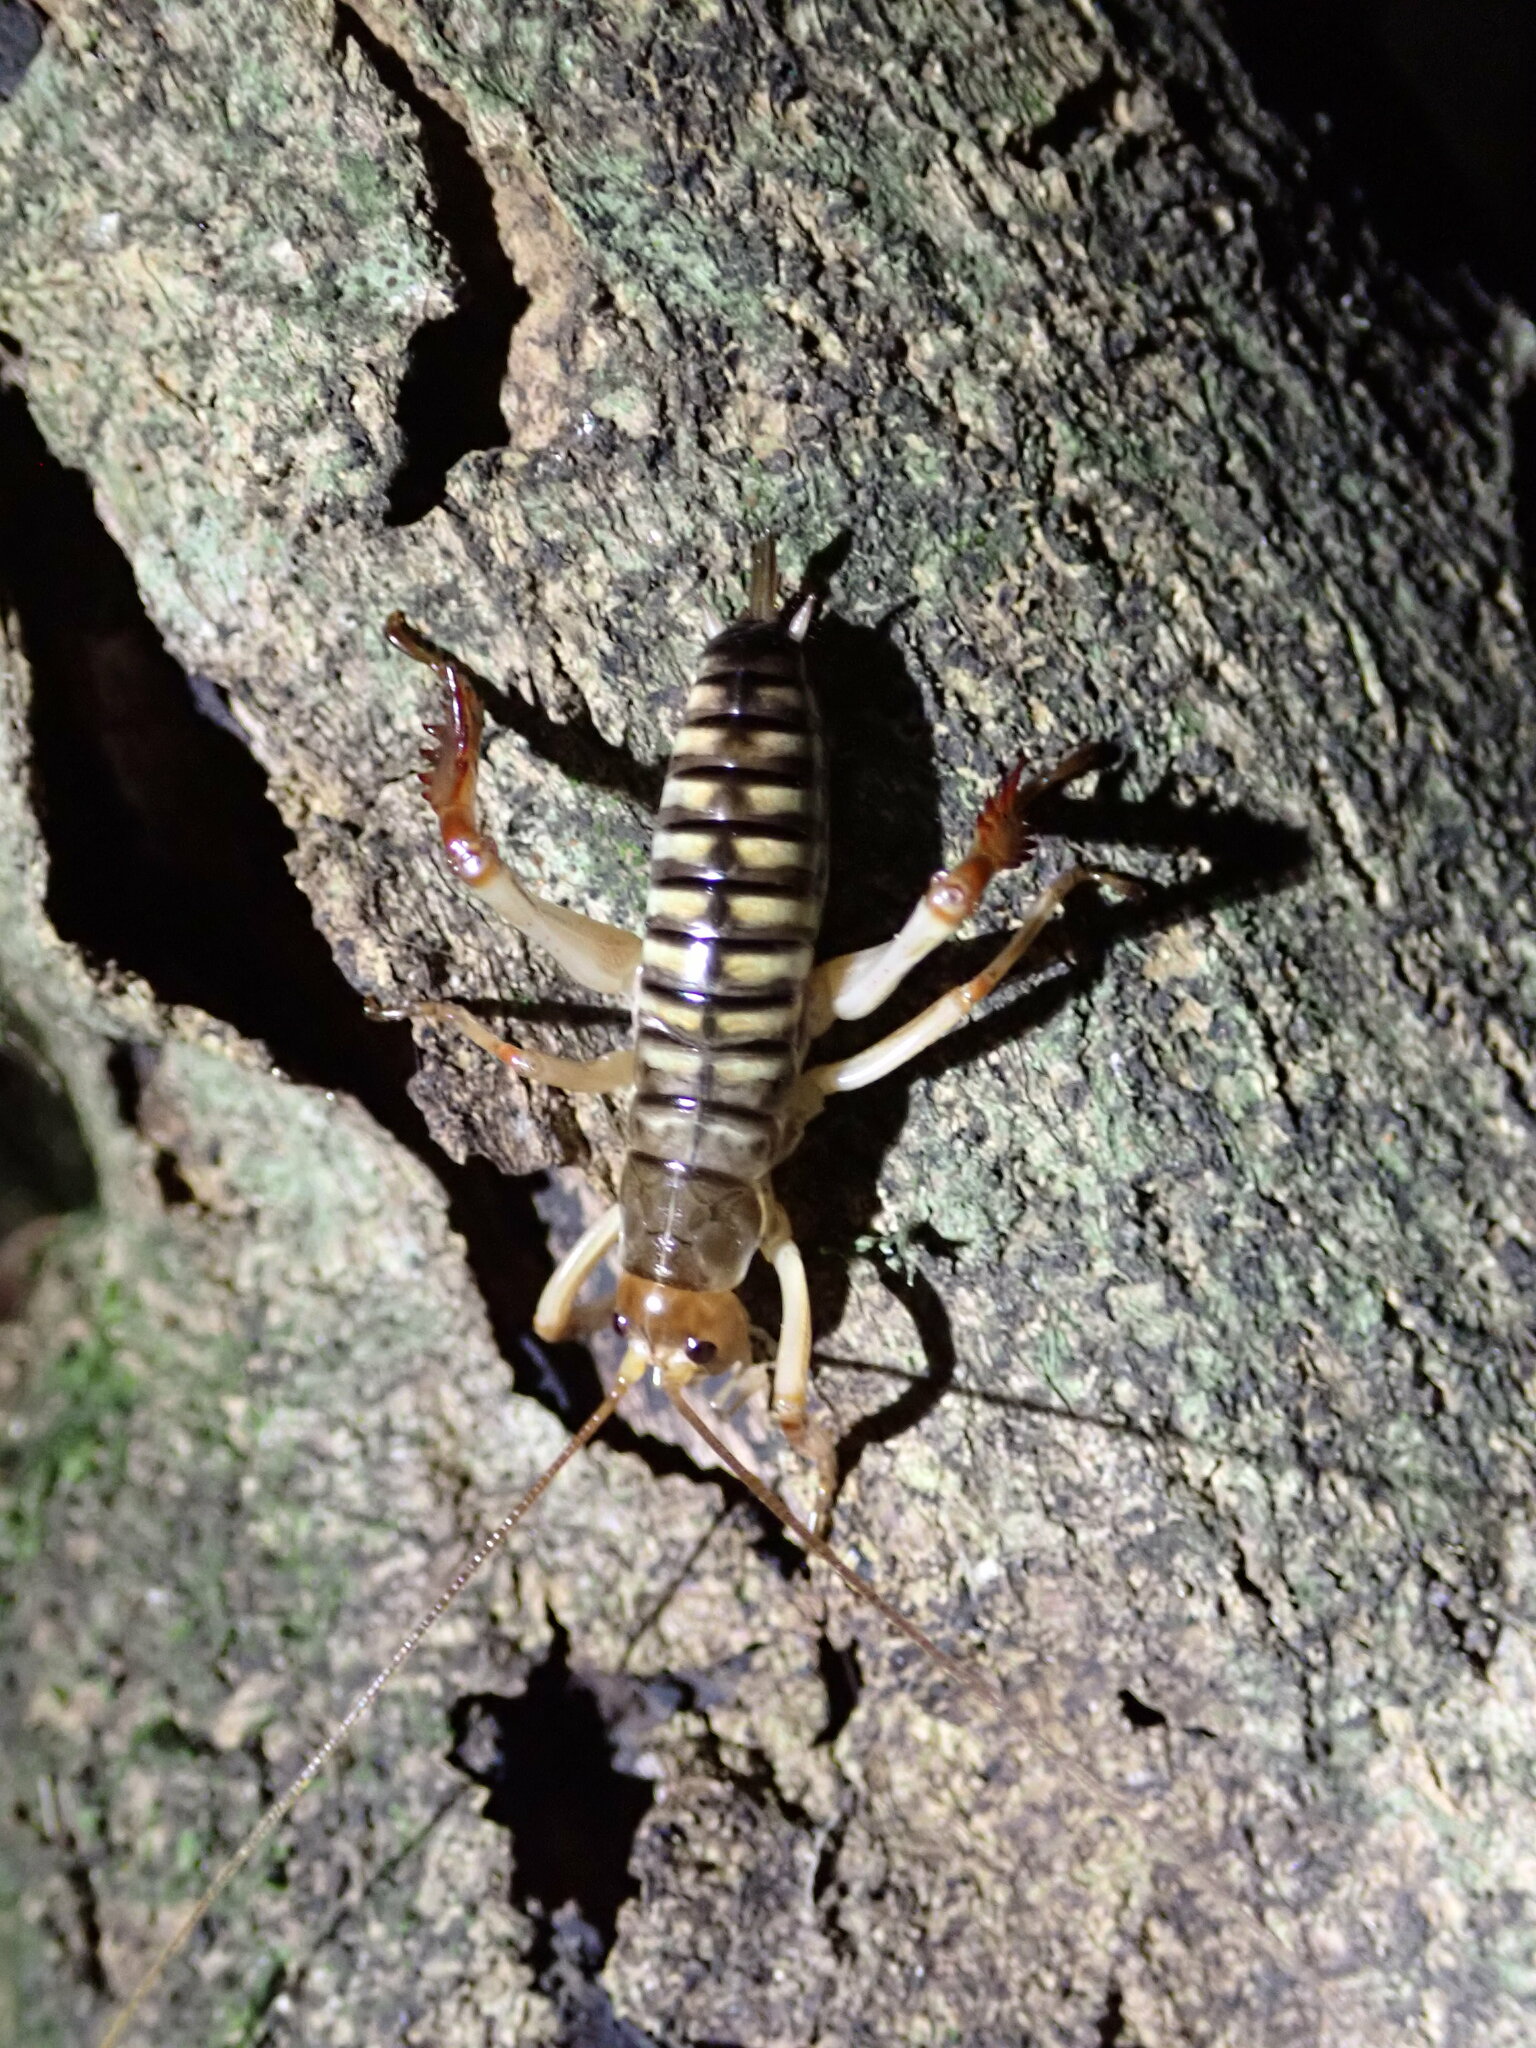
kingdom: Animalia
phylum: Arthropoda
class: Insecta
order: Orthoptera
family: Anostostomatidae
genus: Hemideina
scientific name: Hemideina crassidens
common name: Wellington tree weta
